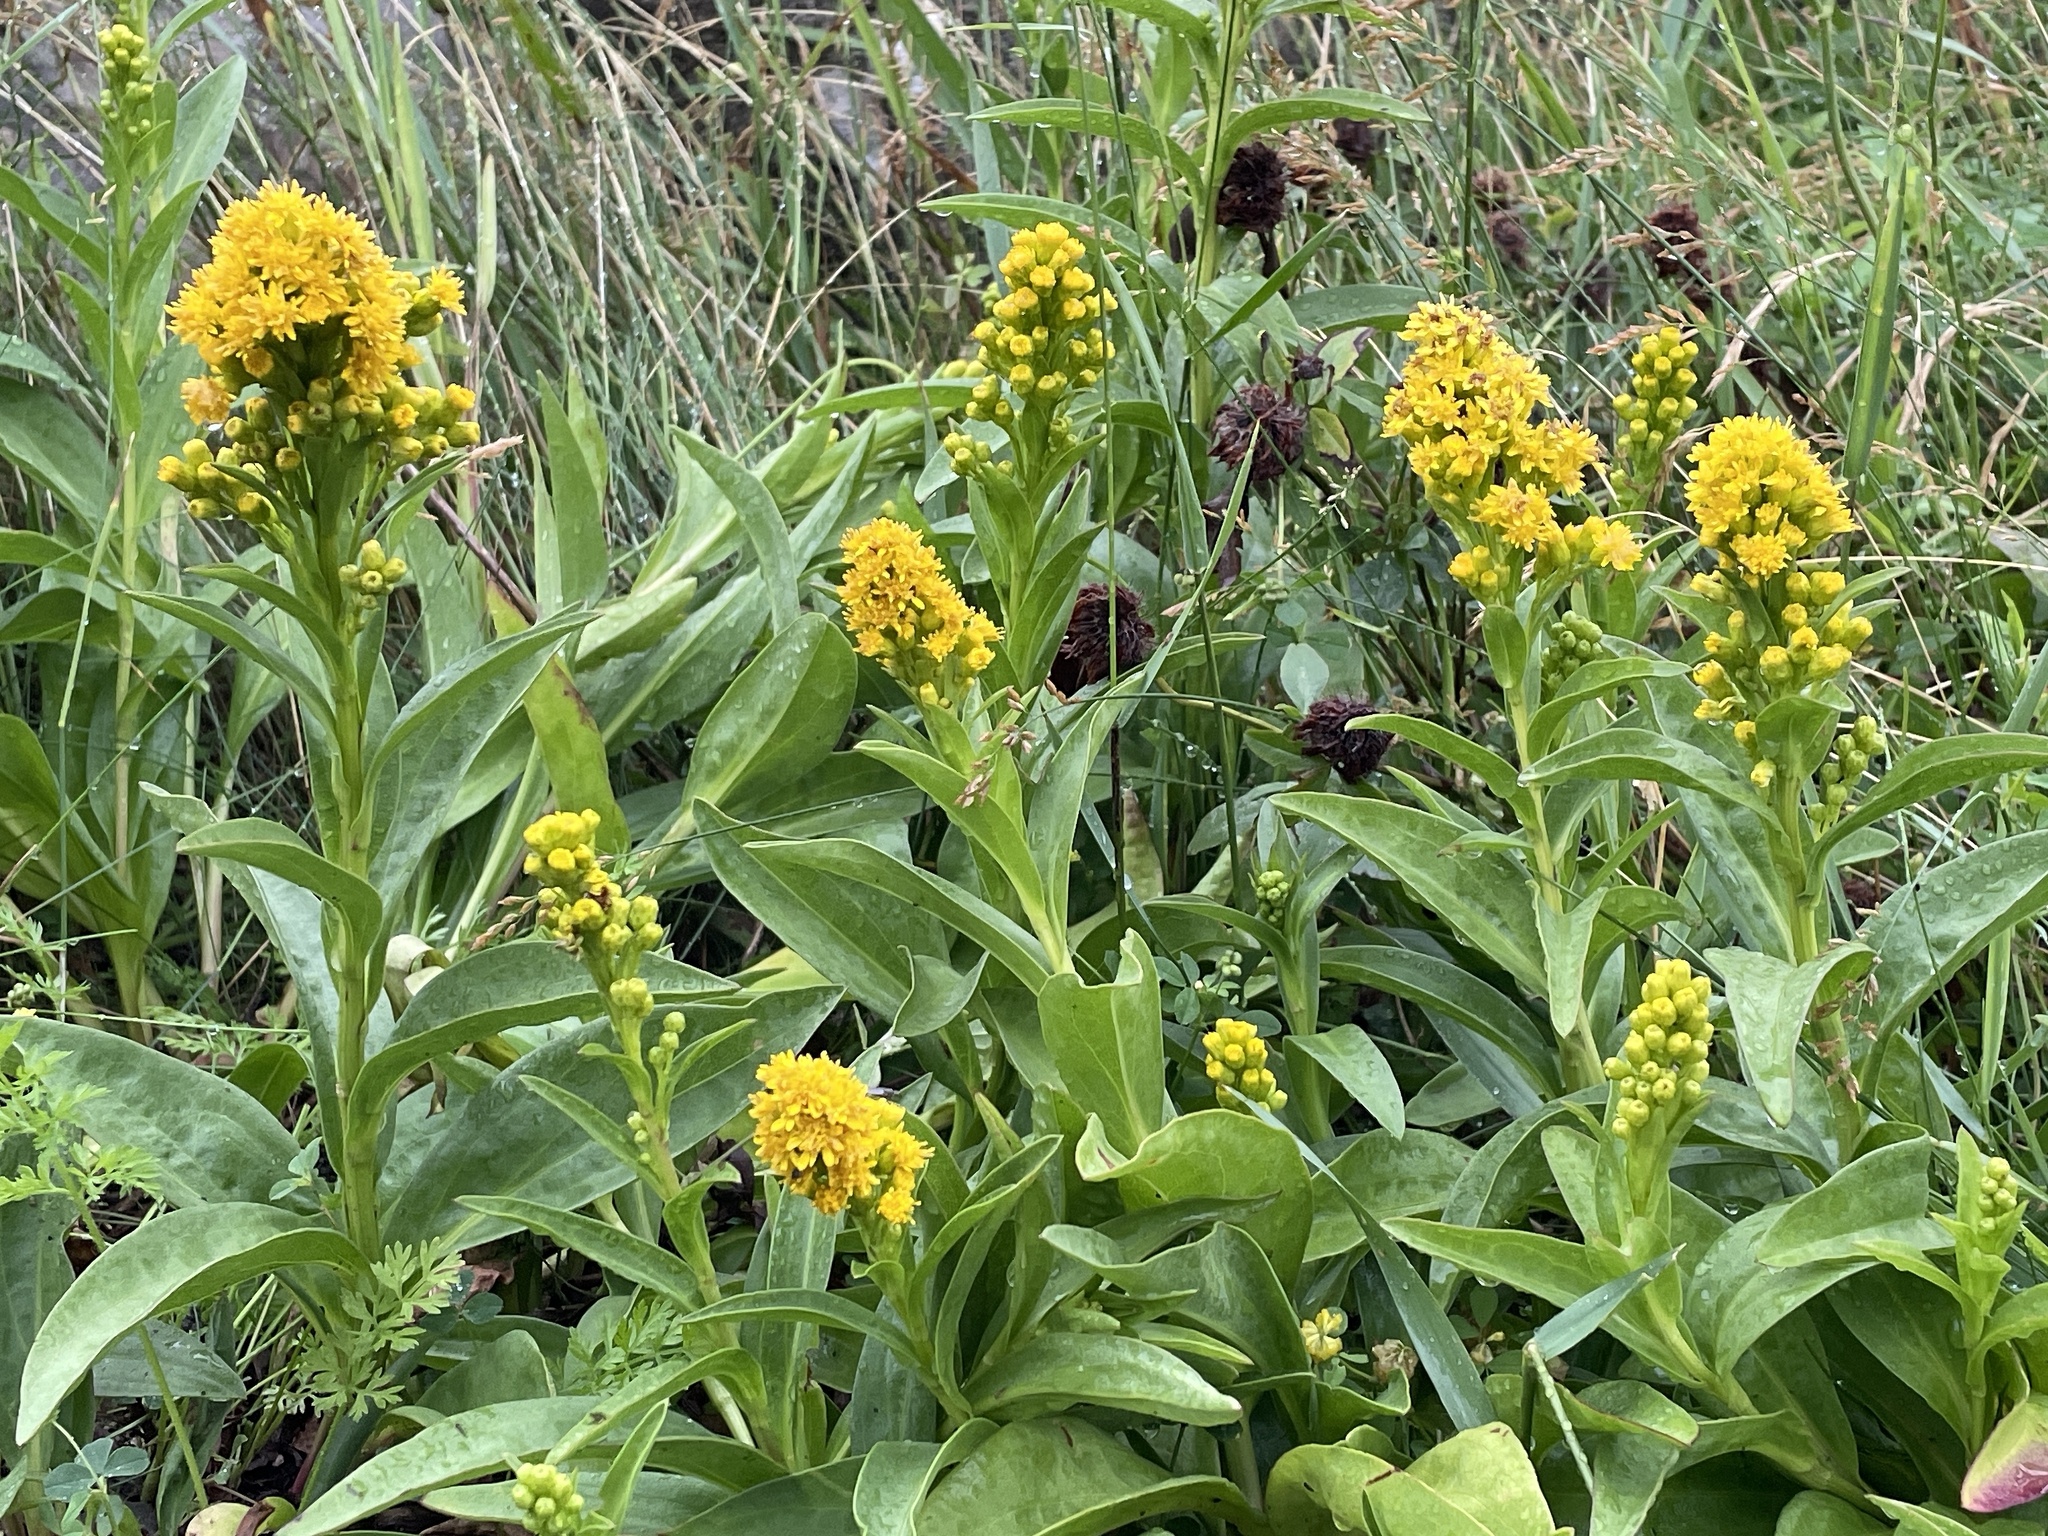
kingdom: Plantae
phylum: Tracheophyta
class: Magnoliopsida
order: Asterales
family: Asteraceae
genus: Solidago
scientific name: Solidago sempervirens
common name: Salt-marsh goldenrod
